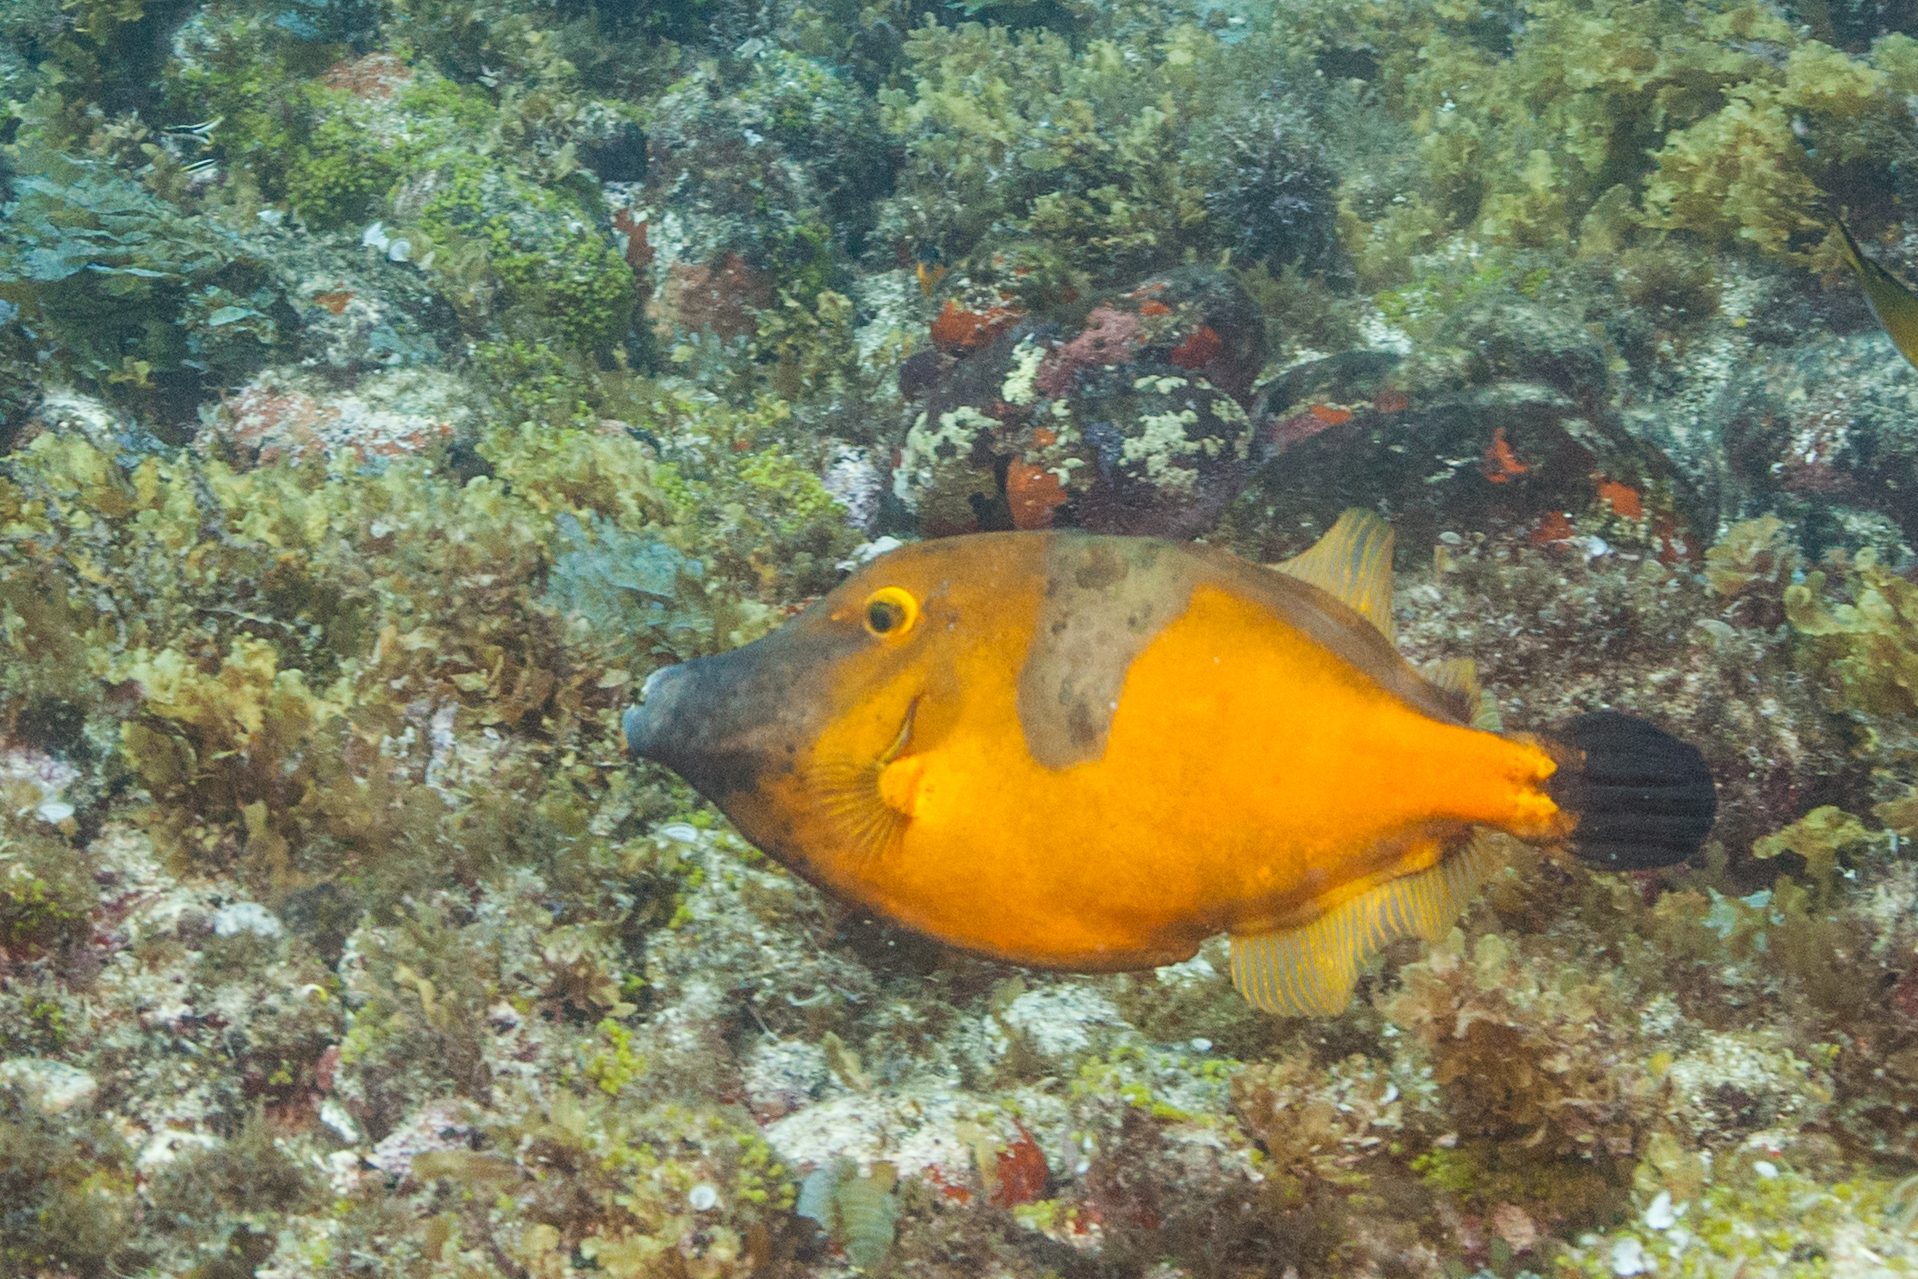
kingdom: Animalia
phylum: Chordata
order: Tetraodontiformes
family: Monacanthidae
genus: Cantherhines
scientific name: Cantherhines macrocerus
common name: Whitespotted filefish
